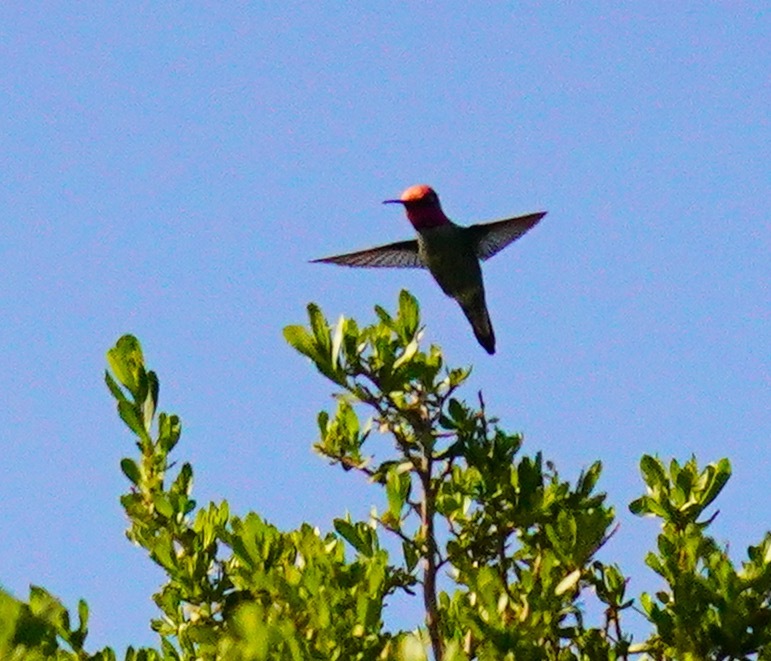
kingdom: Animalia
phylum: Chordata
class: Aves
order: Apodiformes
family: Trochilidae
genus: Calypte
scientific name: Calypte anna
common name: Anna's hummingbird
